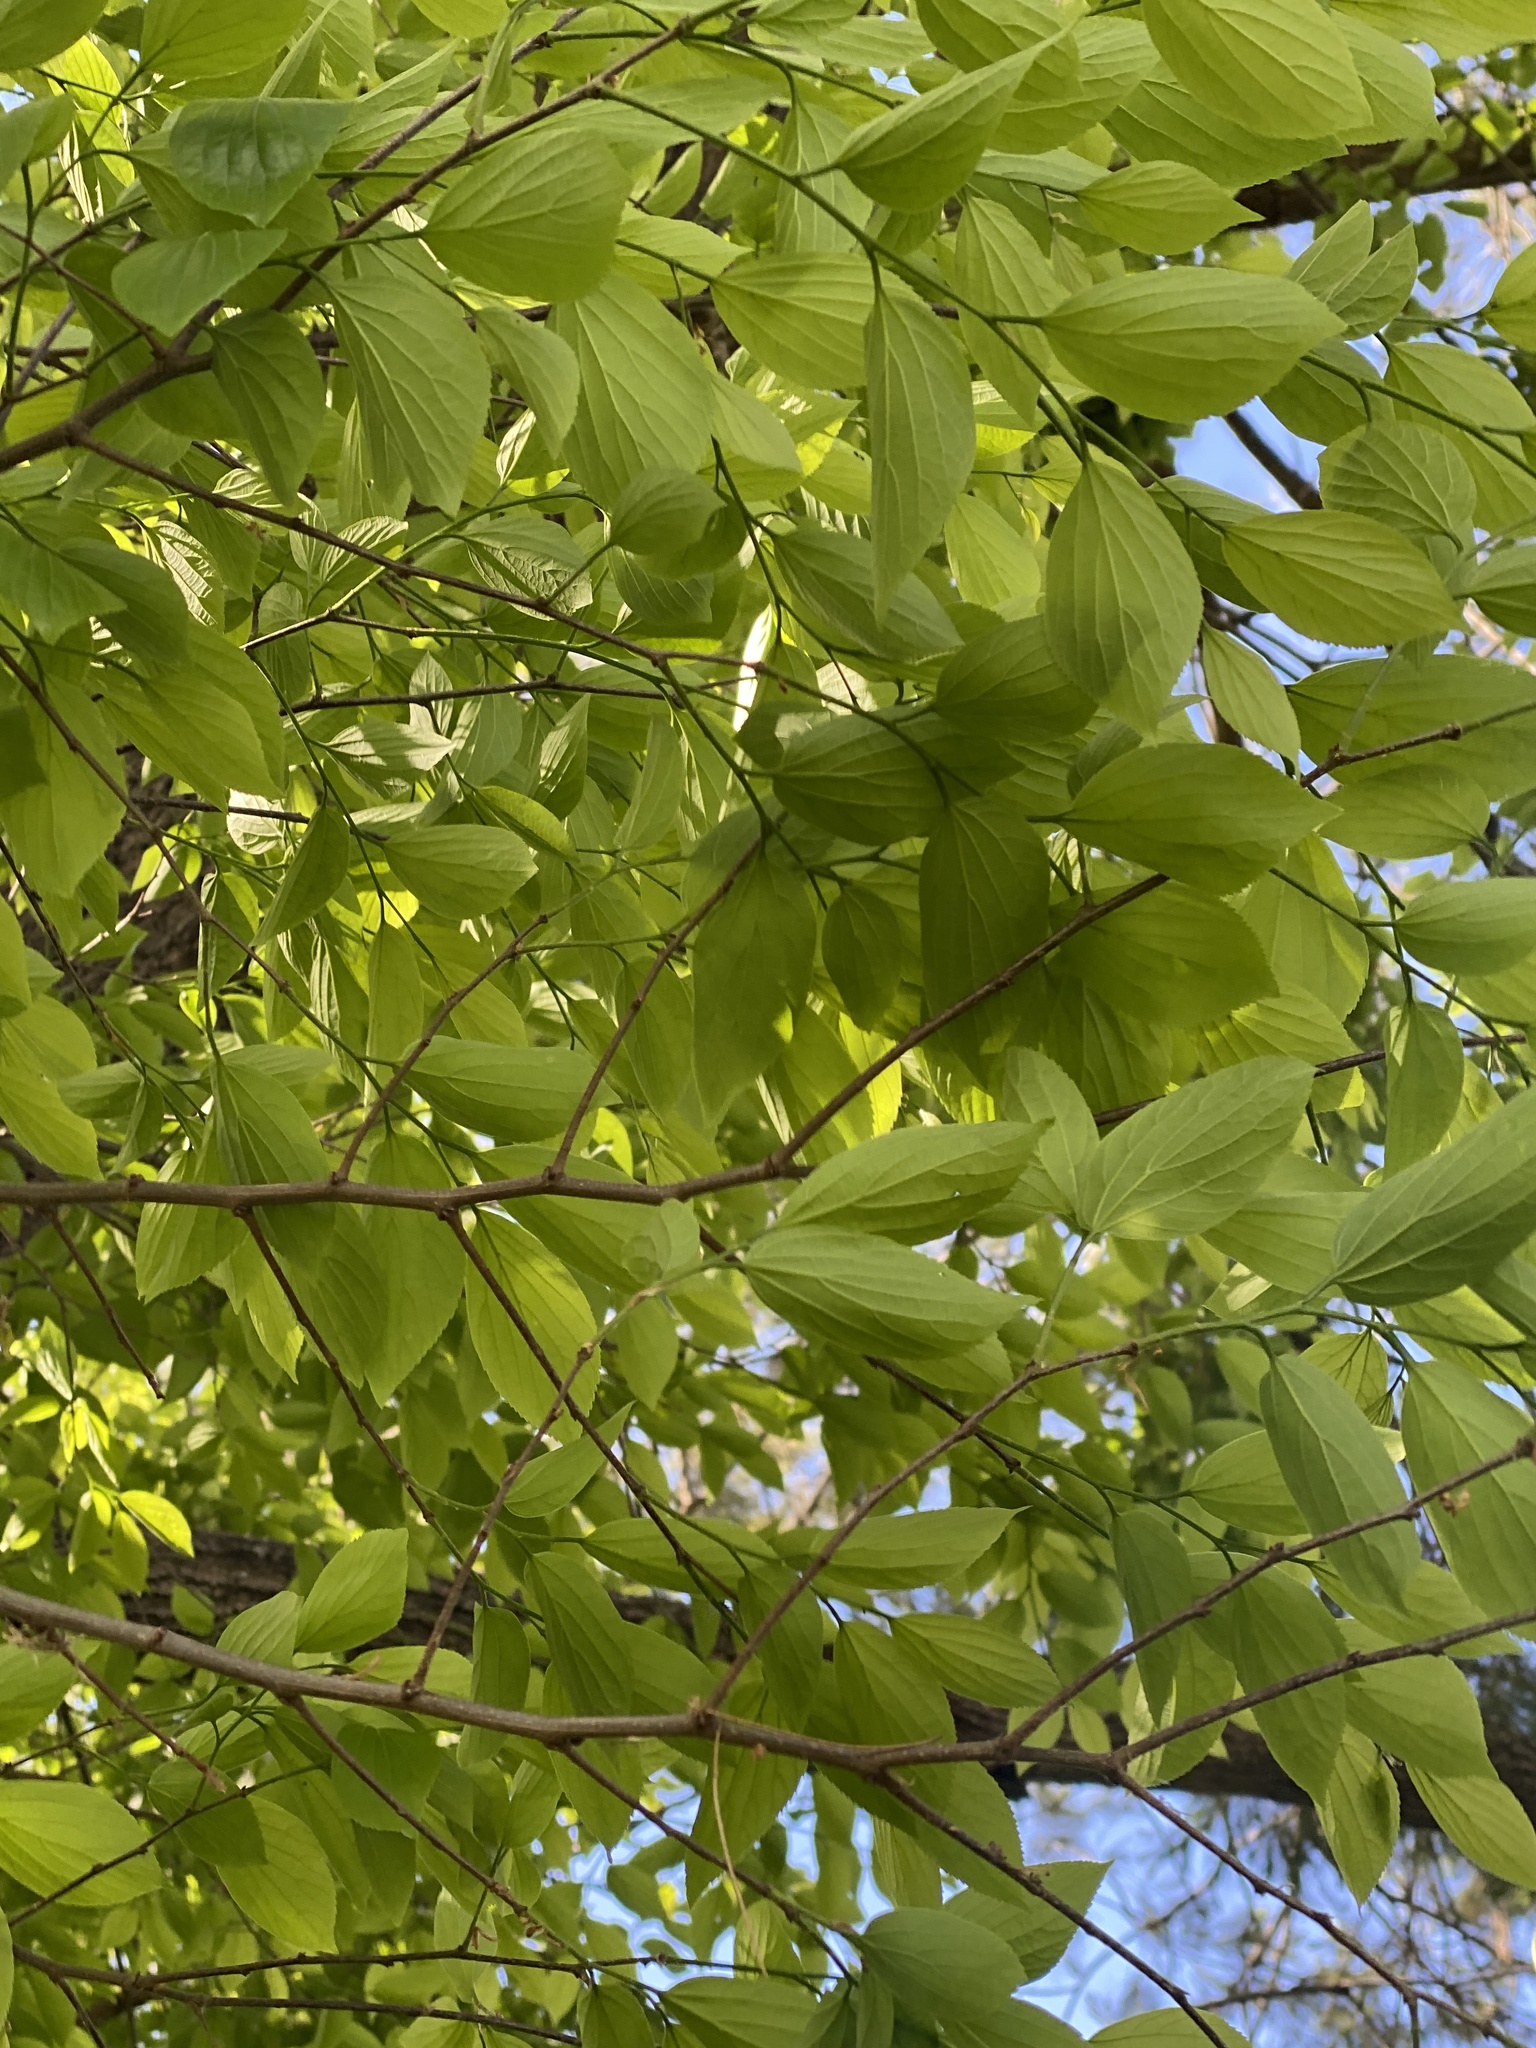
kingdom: Plantae
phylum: Tracheophyta
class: Magnoliopsida
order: Rosales
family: Cannabaceae
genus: Celtis
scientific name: Celtis sinensis
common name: Chinese hackberry
